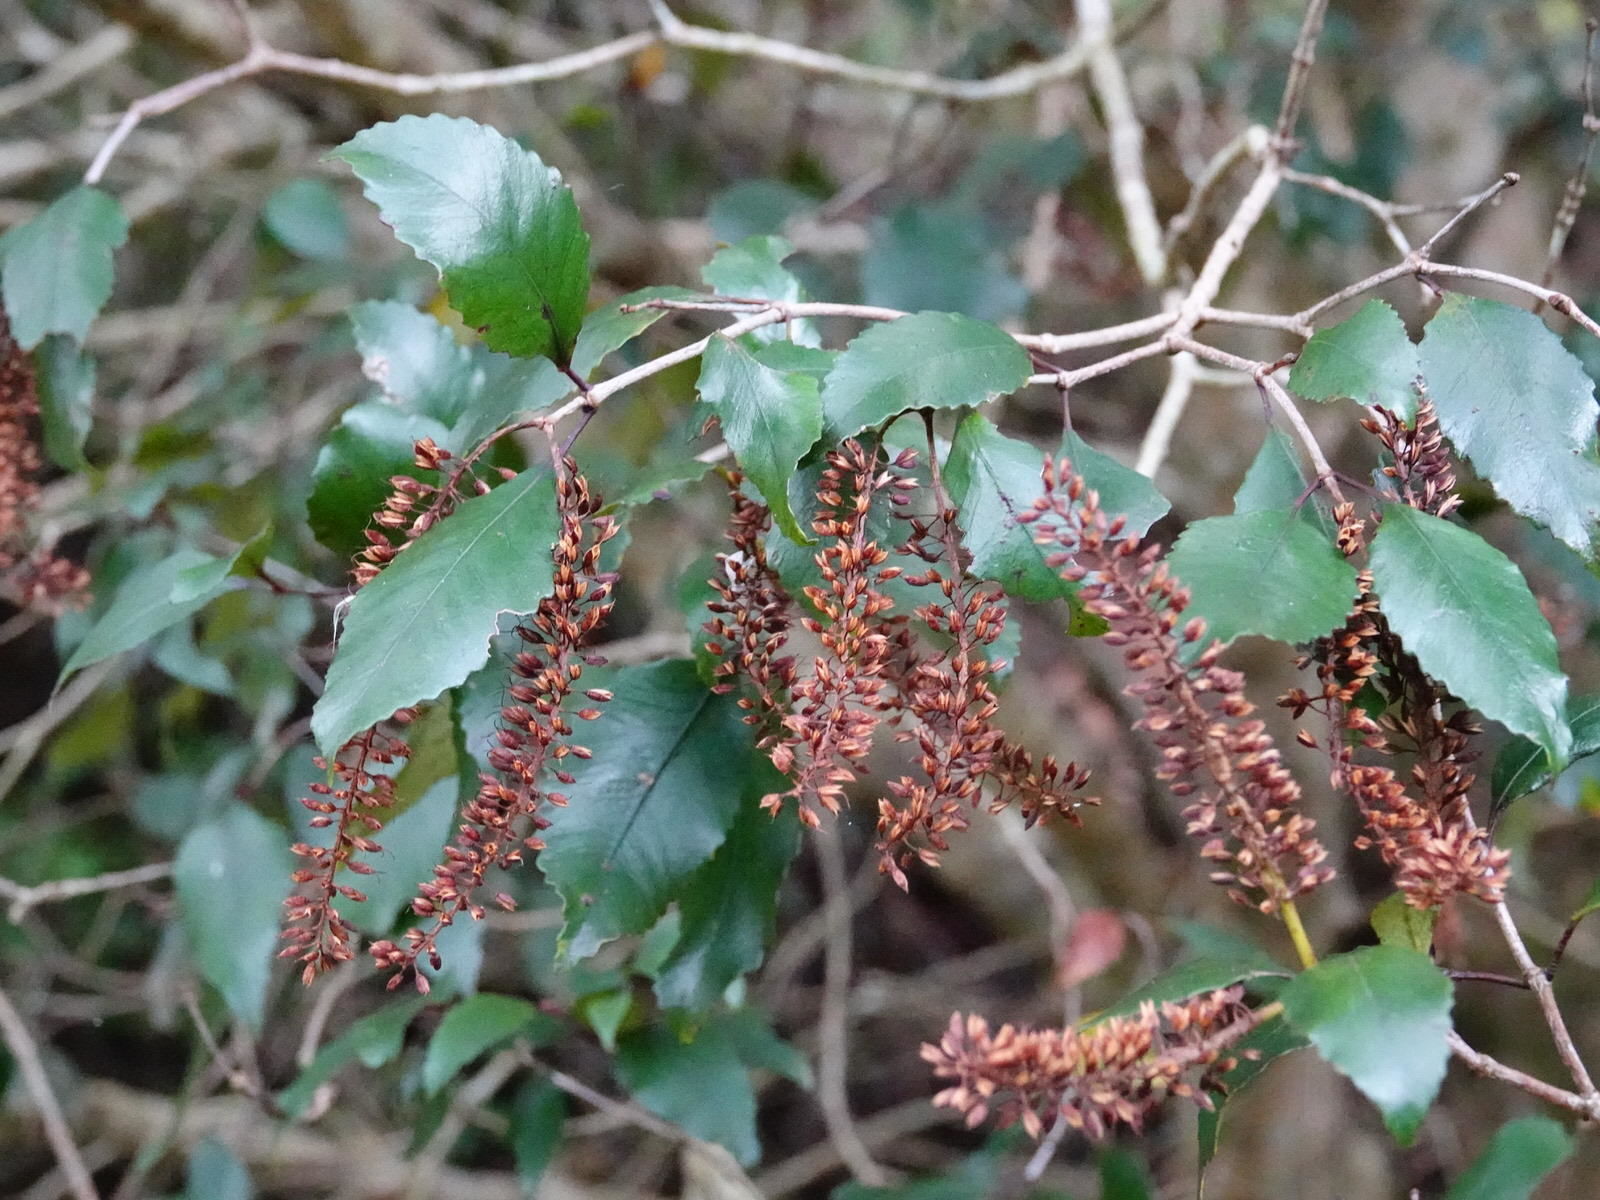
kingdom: Plantae
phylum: Tracheophyta
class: Magnoliopsida
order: Oxalidales
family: Cunoniaceae
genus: Pterophylla
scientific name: Pterophylla racemosa
